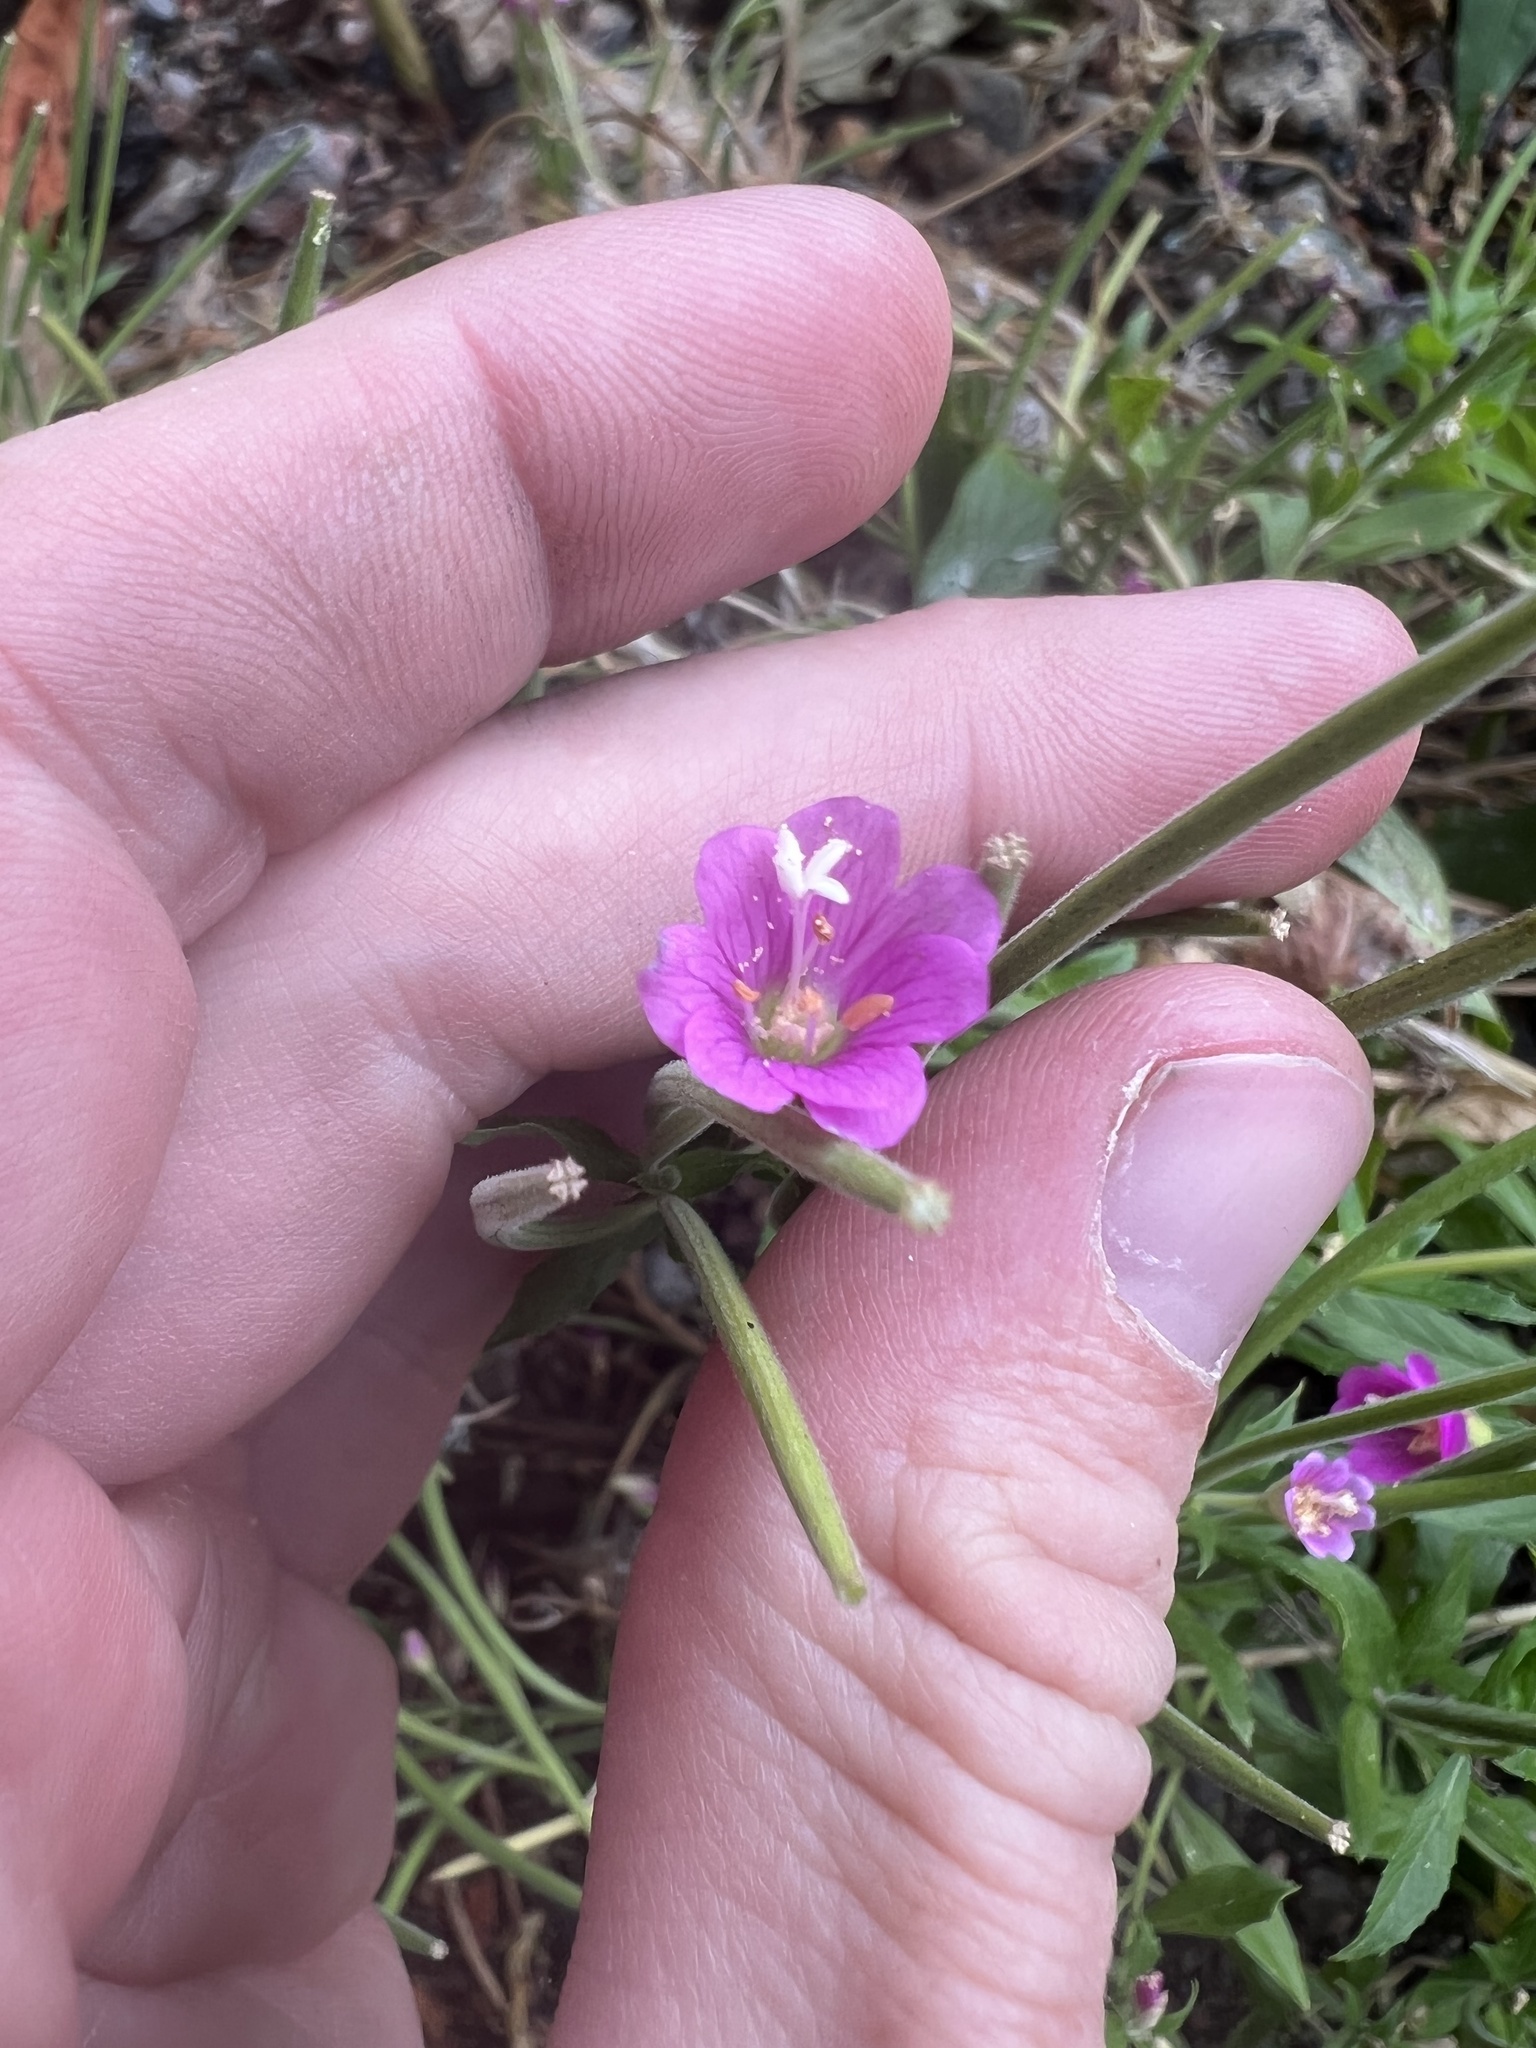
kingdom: Plantae
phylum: Tracheophyta
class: Magnoliopsida
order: Myrtales
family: Onagraceae
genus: Epilobium
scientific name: Epilobium hirsutum
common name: Great willowherb
